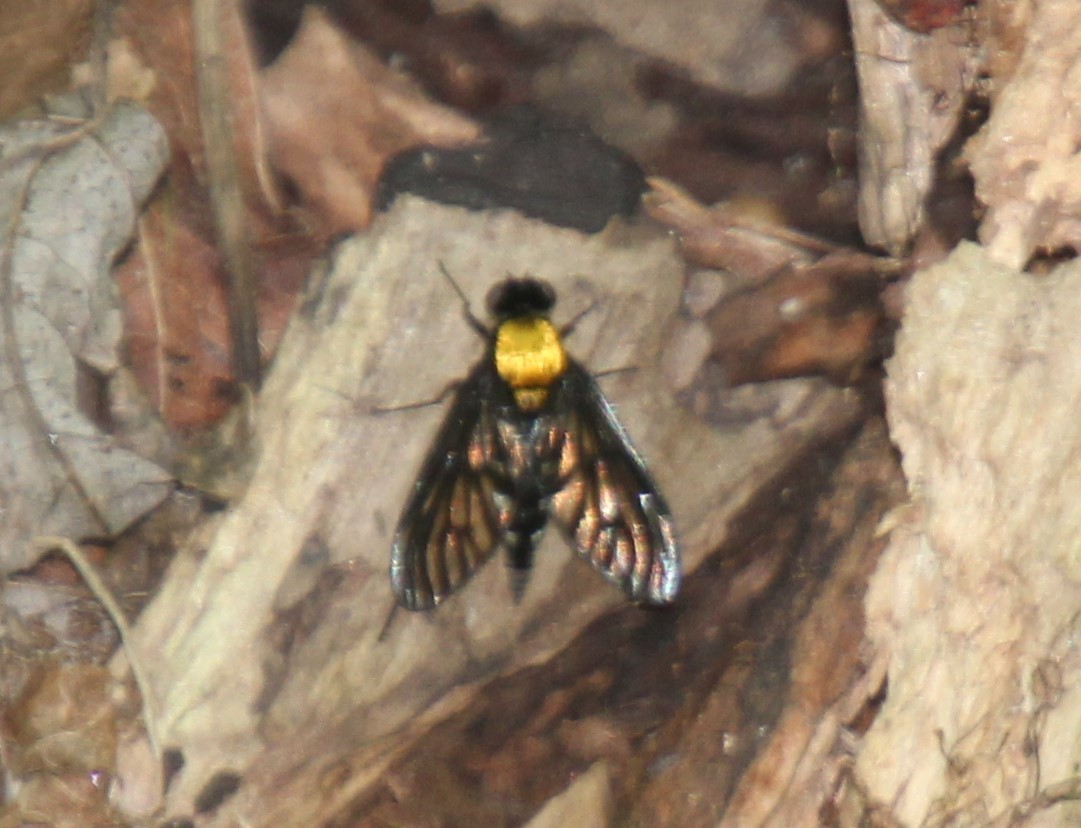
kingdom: Animalia
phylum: Arthropoda
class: Insecta
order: Diptera
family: Rhagionidae
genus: Chrysopilus
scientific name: Chrysopilus thoracicus
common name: Golden-backed snipe fly
